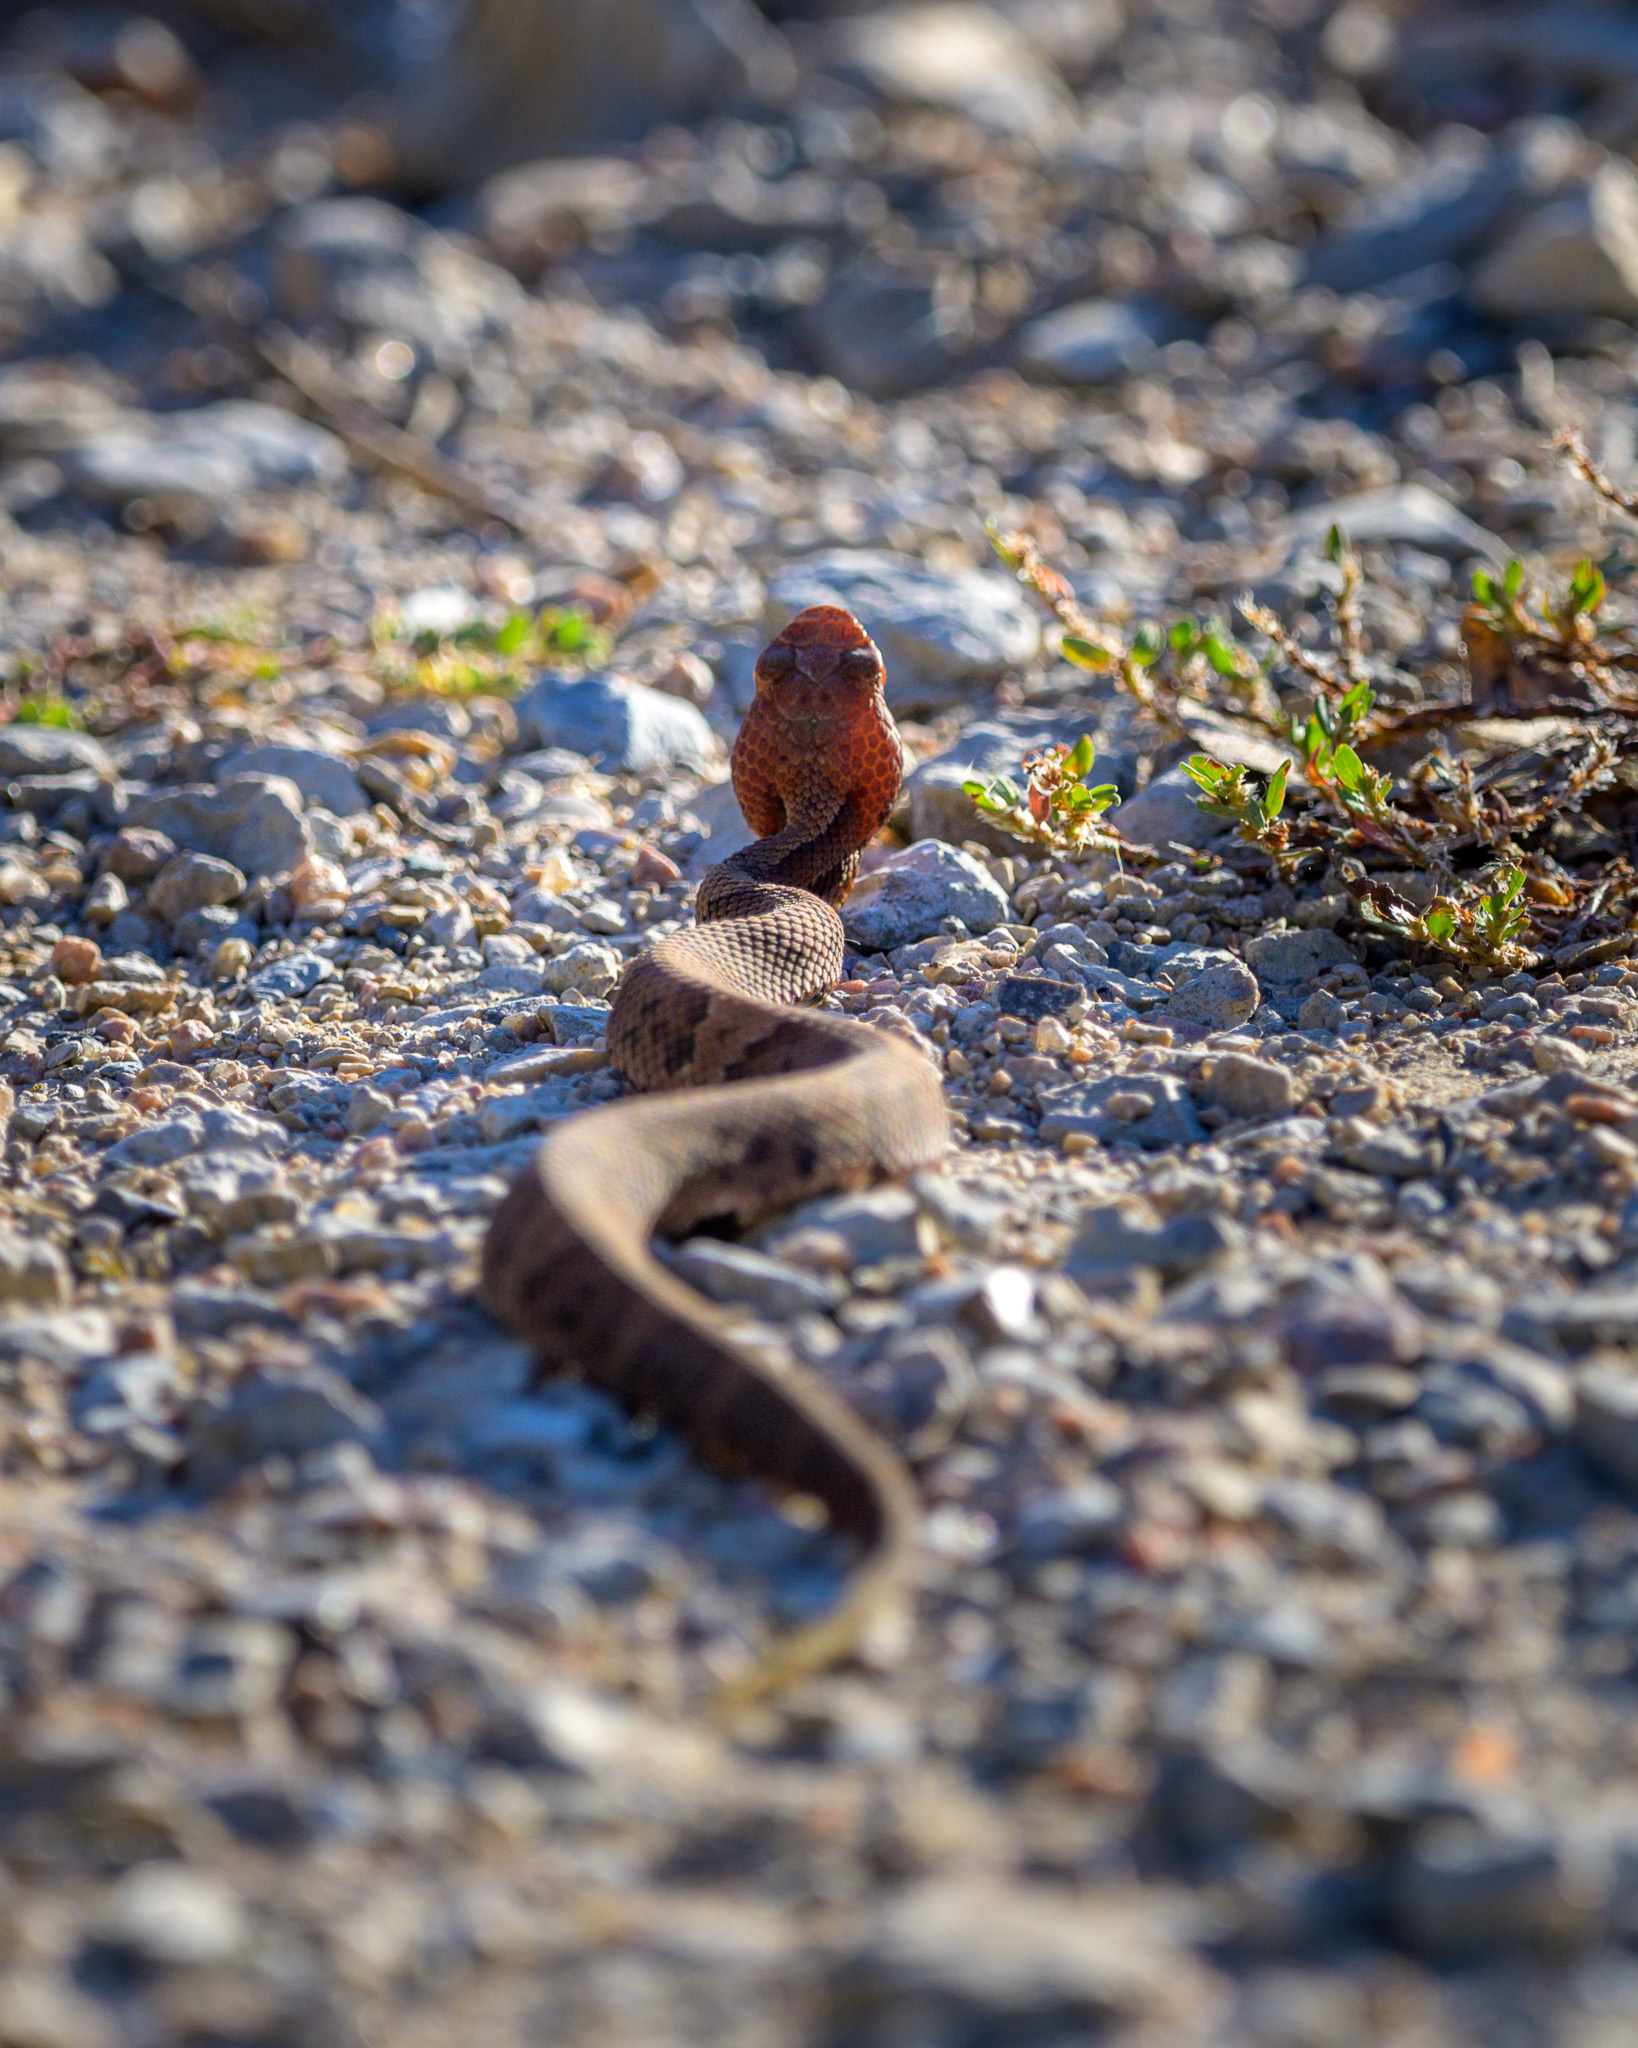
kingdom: Animalia
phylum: Chordata
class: Squamata
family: Viperidae
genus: Agkistrodon
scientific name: Agkistrodon piscivorus
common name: Cottonmouth
